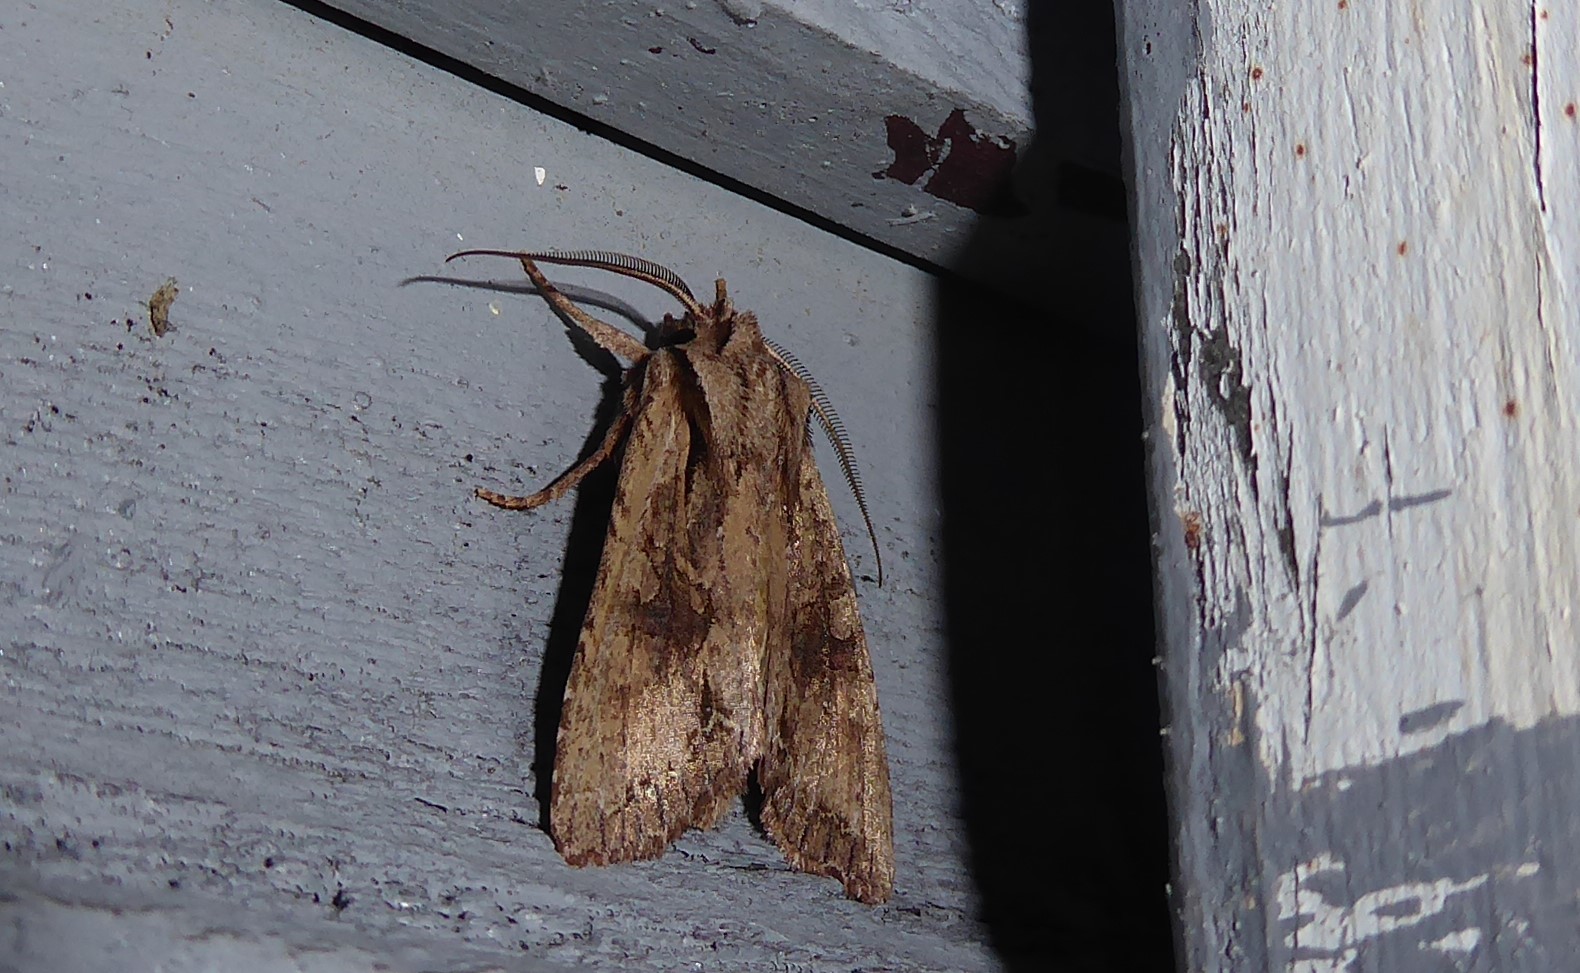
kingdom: Animalia
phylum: Arthropoda
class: Insecta
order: Lepidoptera
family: Noctuidae
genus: Ichneutica
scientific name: Ichneutica
